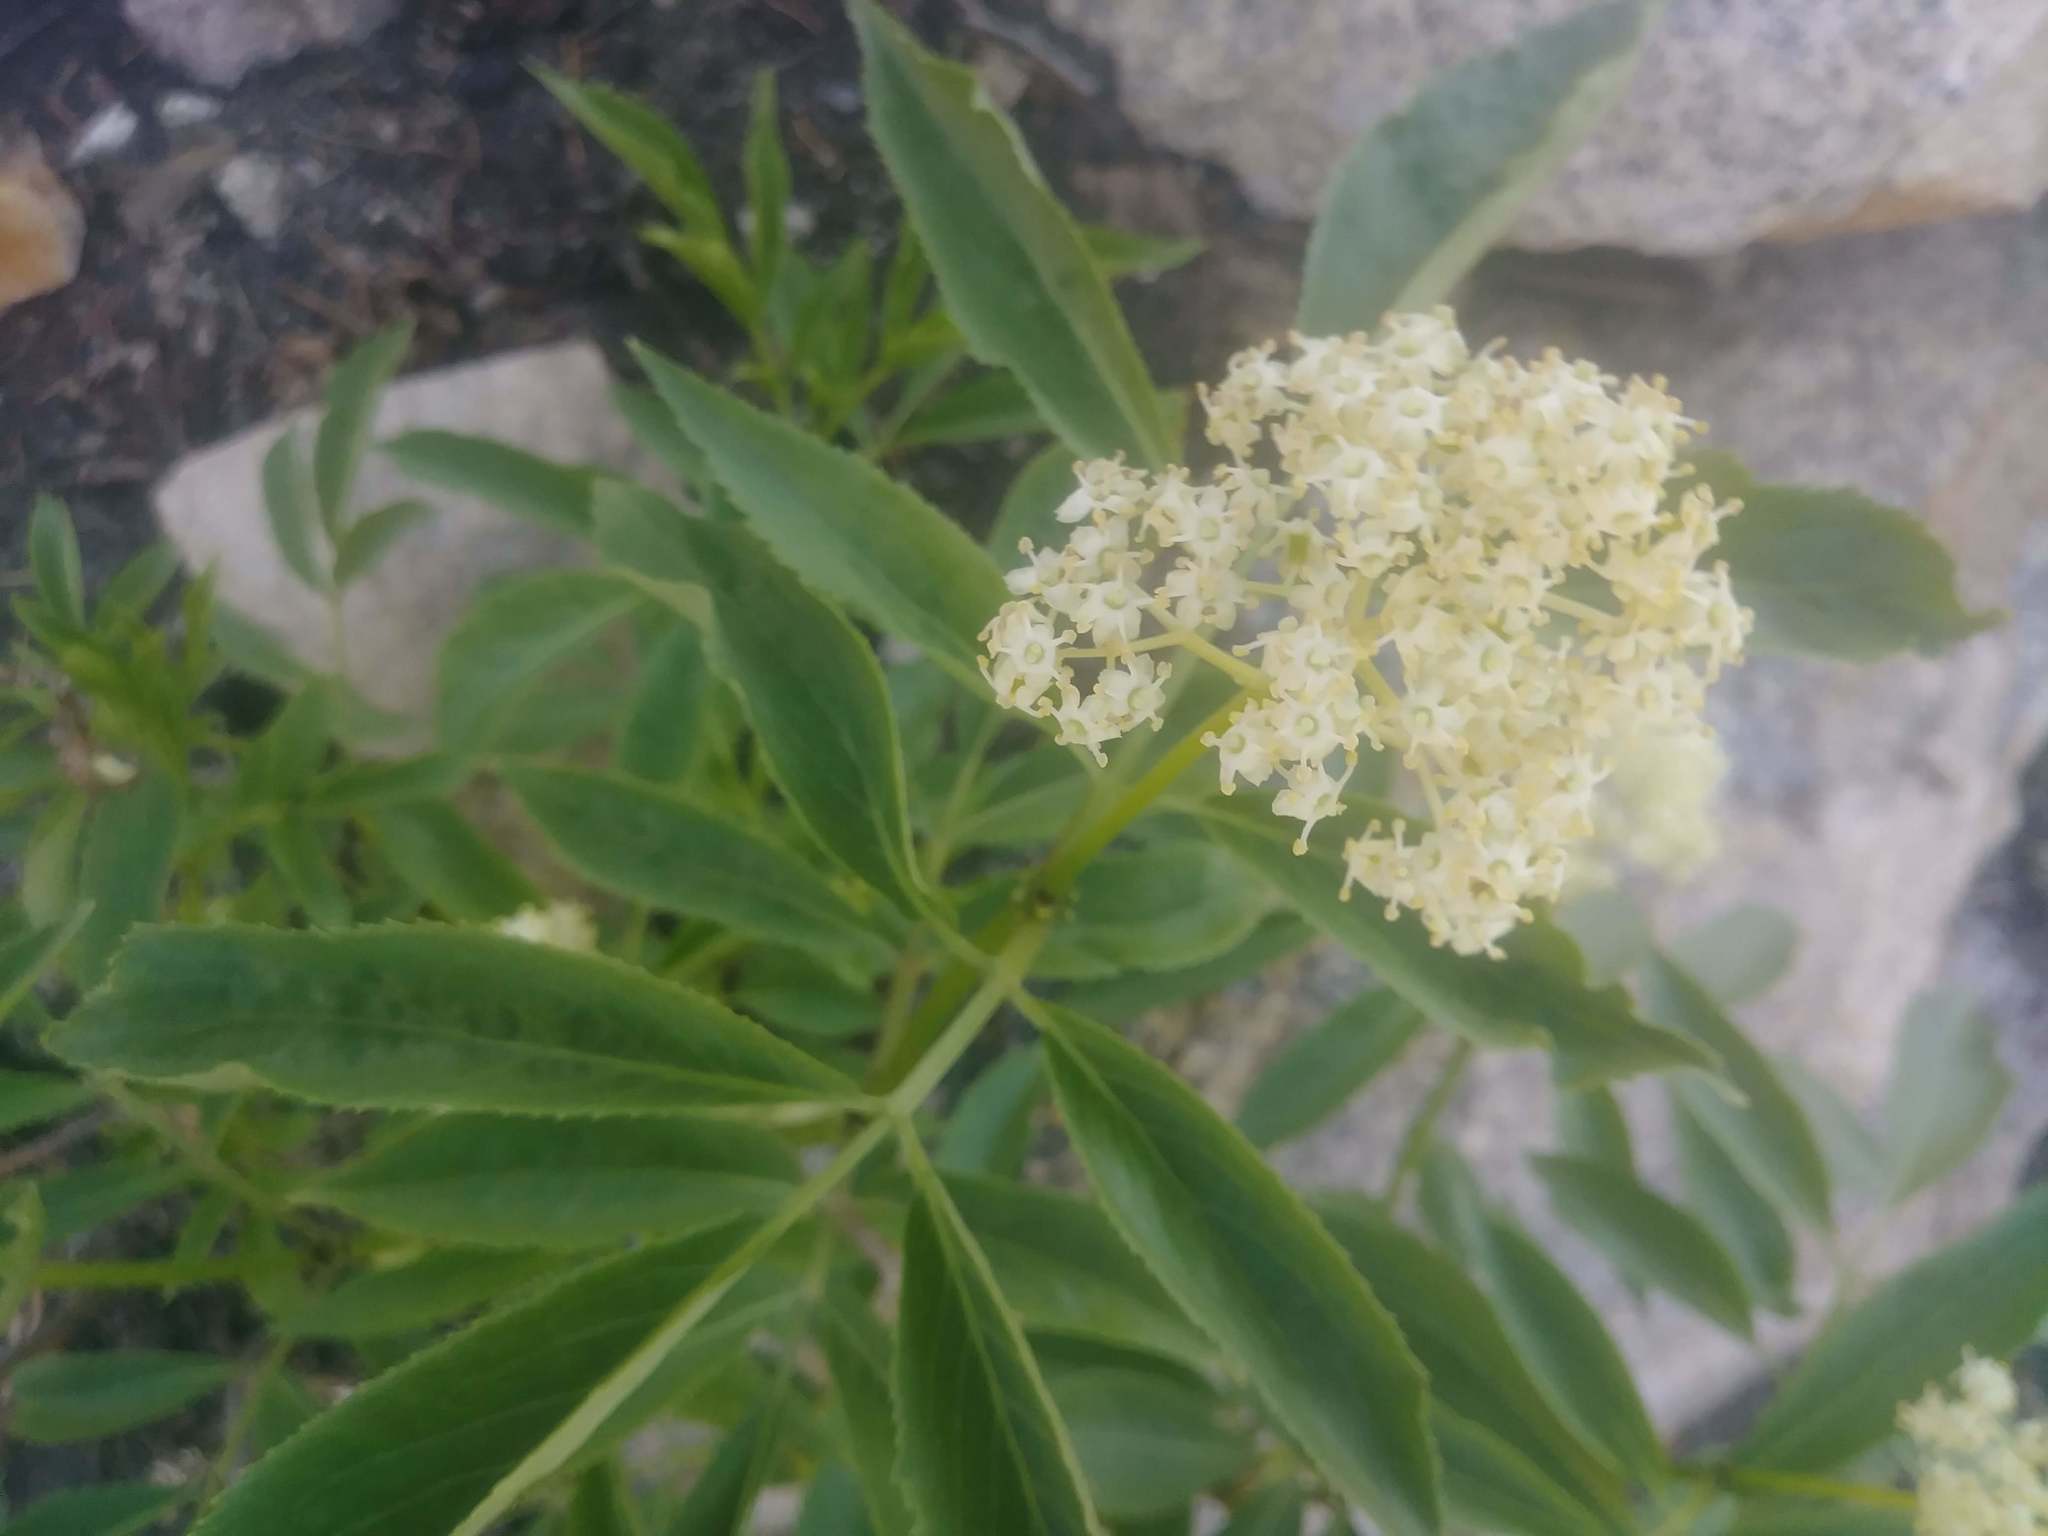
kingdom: Plantae
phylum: Tracheophyta
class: Magnoliopsida
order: Dipsacales
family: Viburnaceae
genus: Sambucus
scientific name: Sambucus racemosa
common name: Red-berried elder
